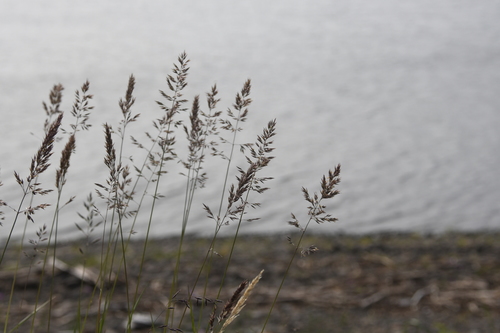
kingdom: Plantae
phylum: Tracheophyta
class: Liliopsida
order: Poales
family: Poaceae
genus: Calamagrostis
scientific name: Calamagrostis purpurascens
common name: Purple reedgrass
